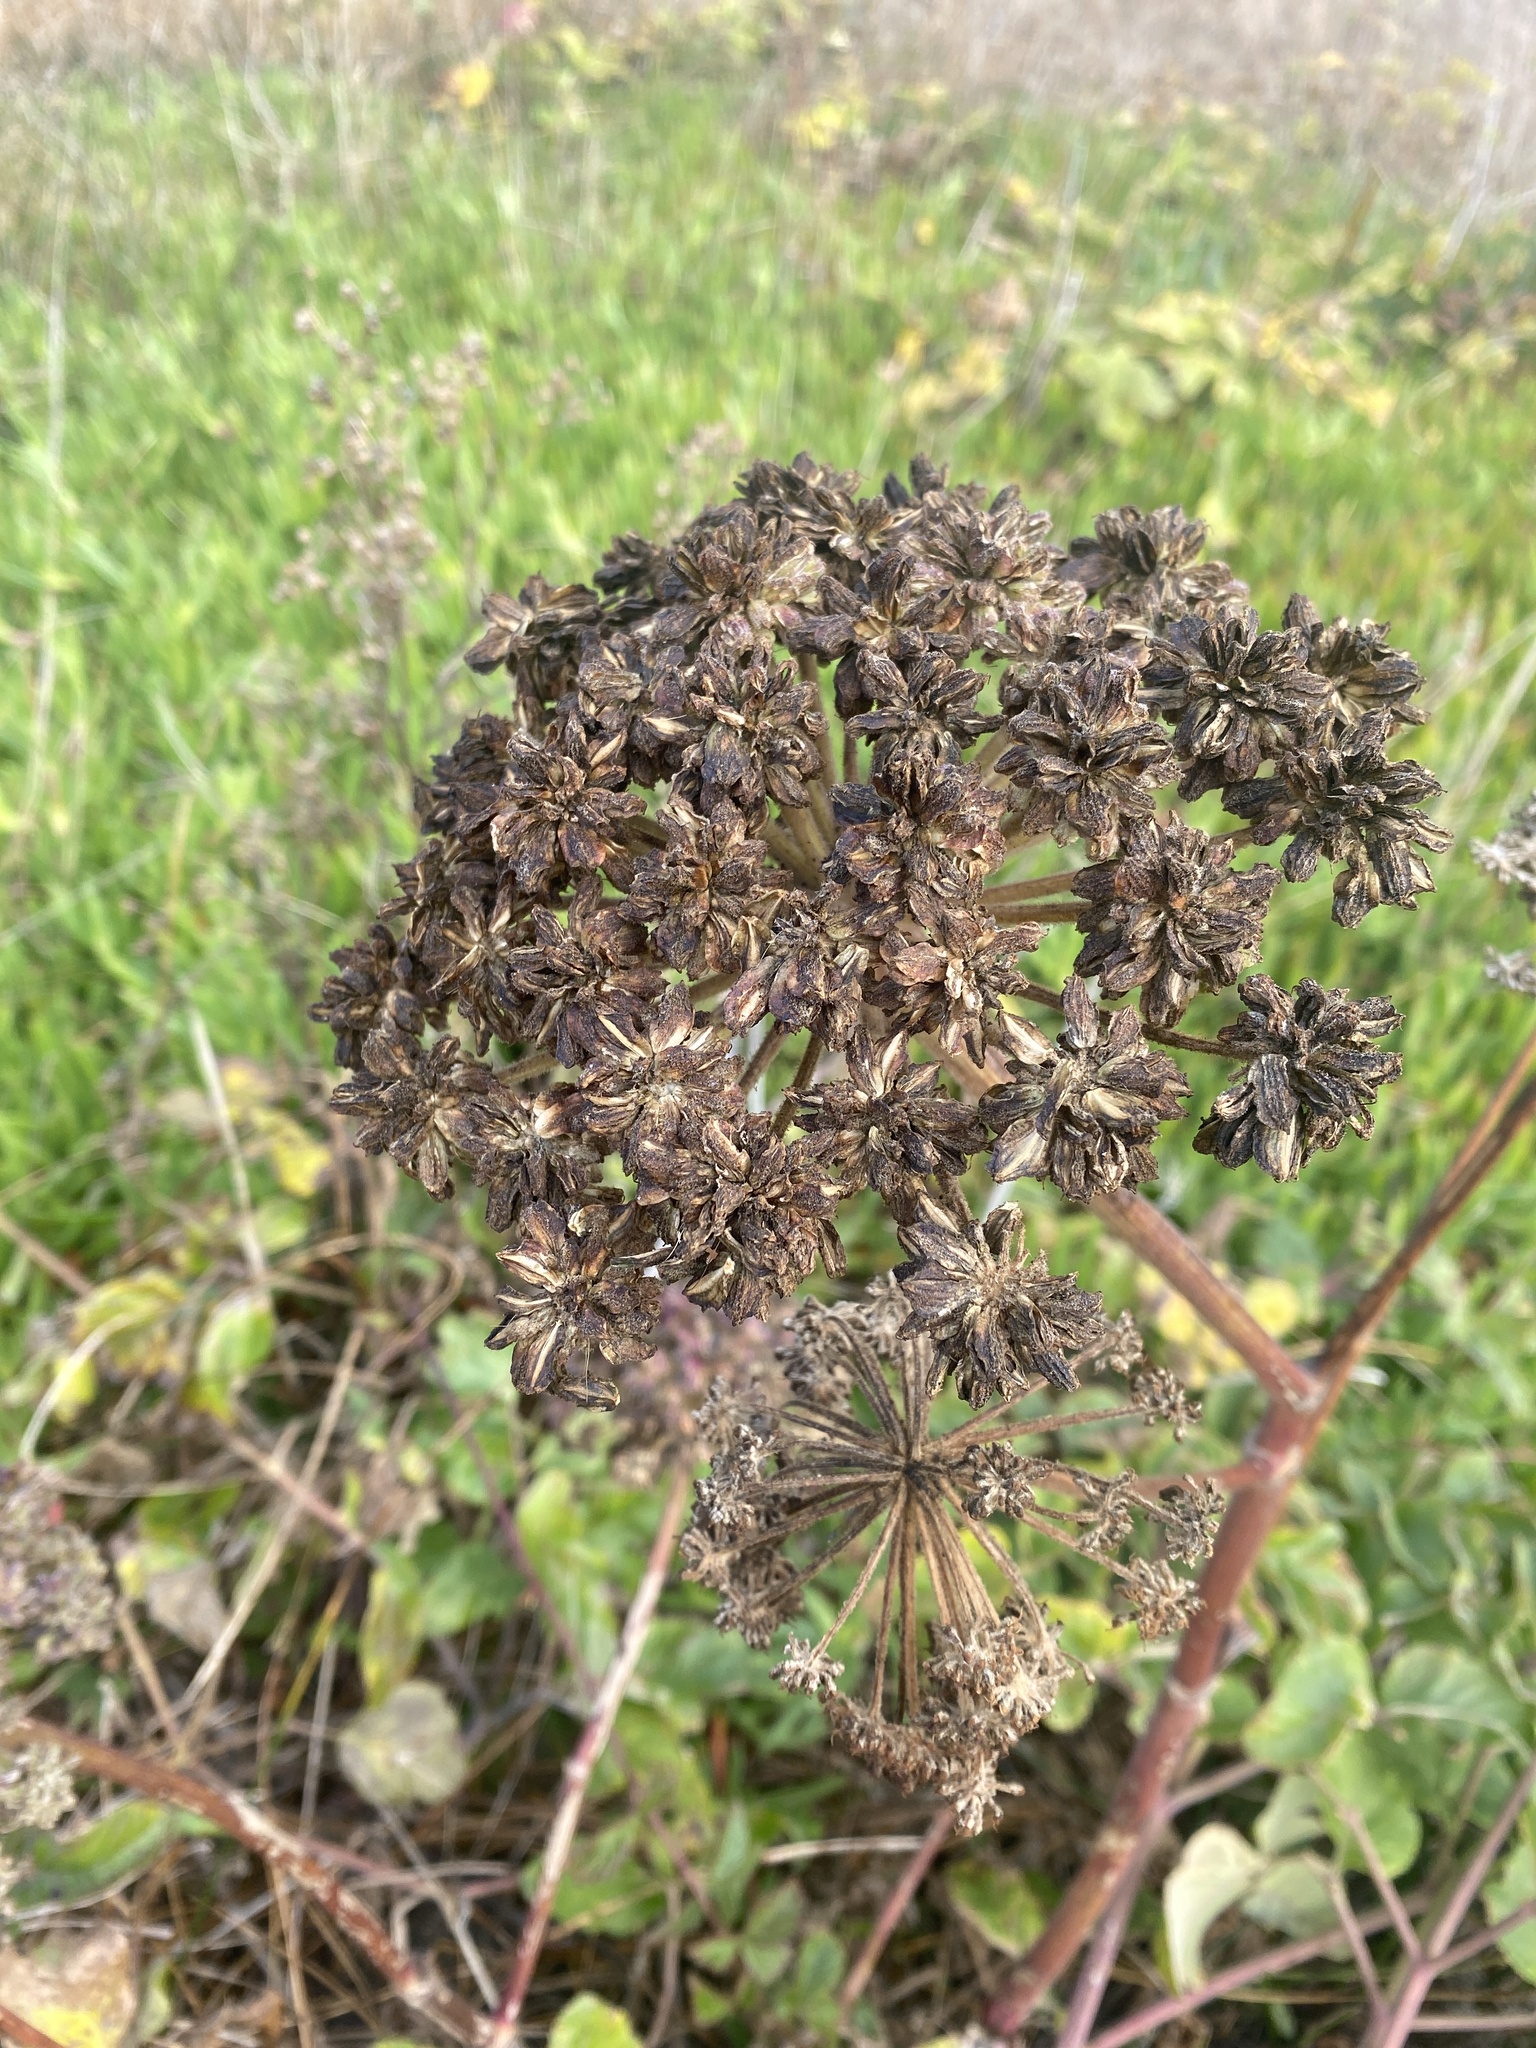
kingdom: Plantae
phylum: Tracheophyta
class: Magnoliopsida
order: Apiales
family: Apiaceae
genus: Angelica
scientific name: Angelica hendersonii
